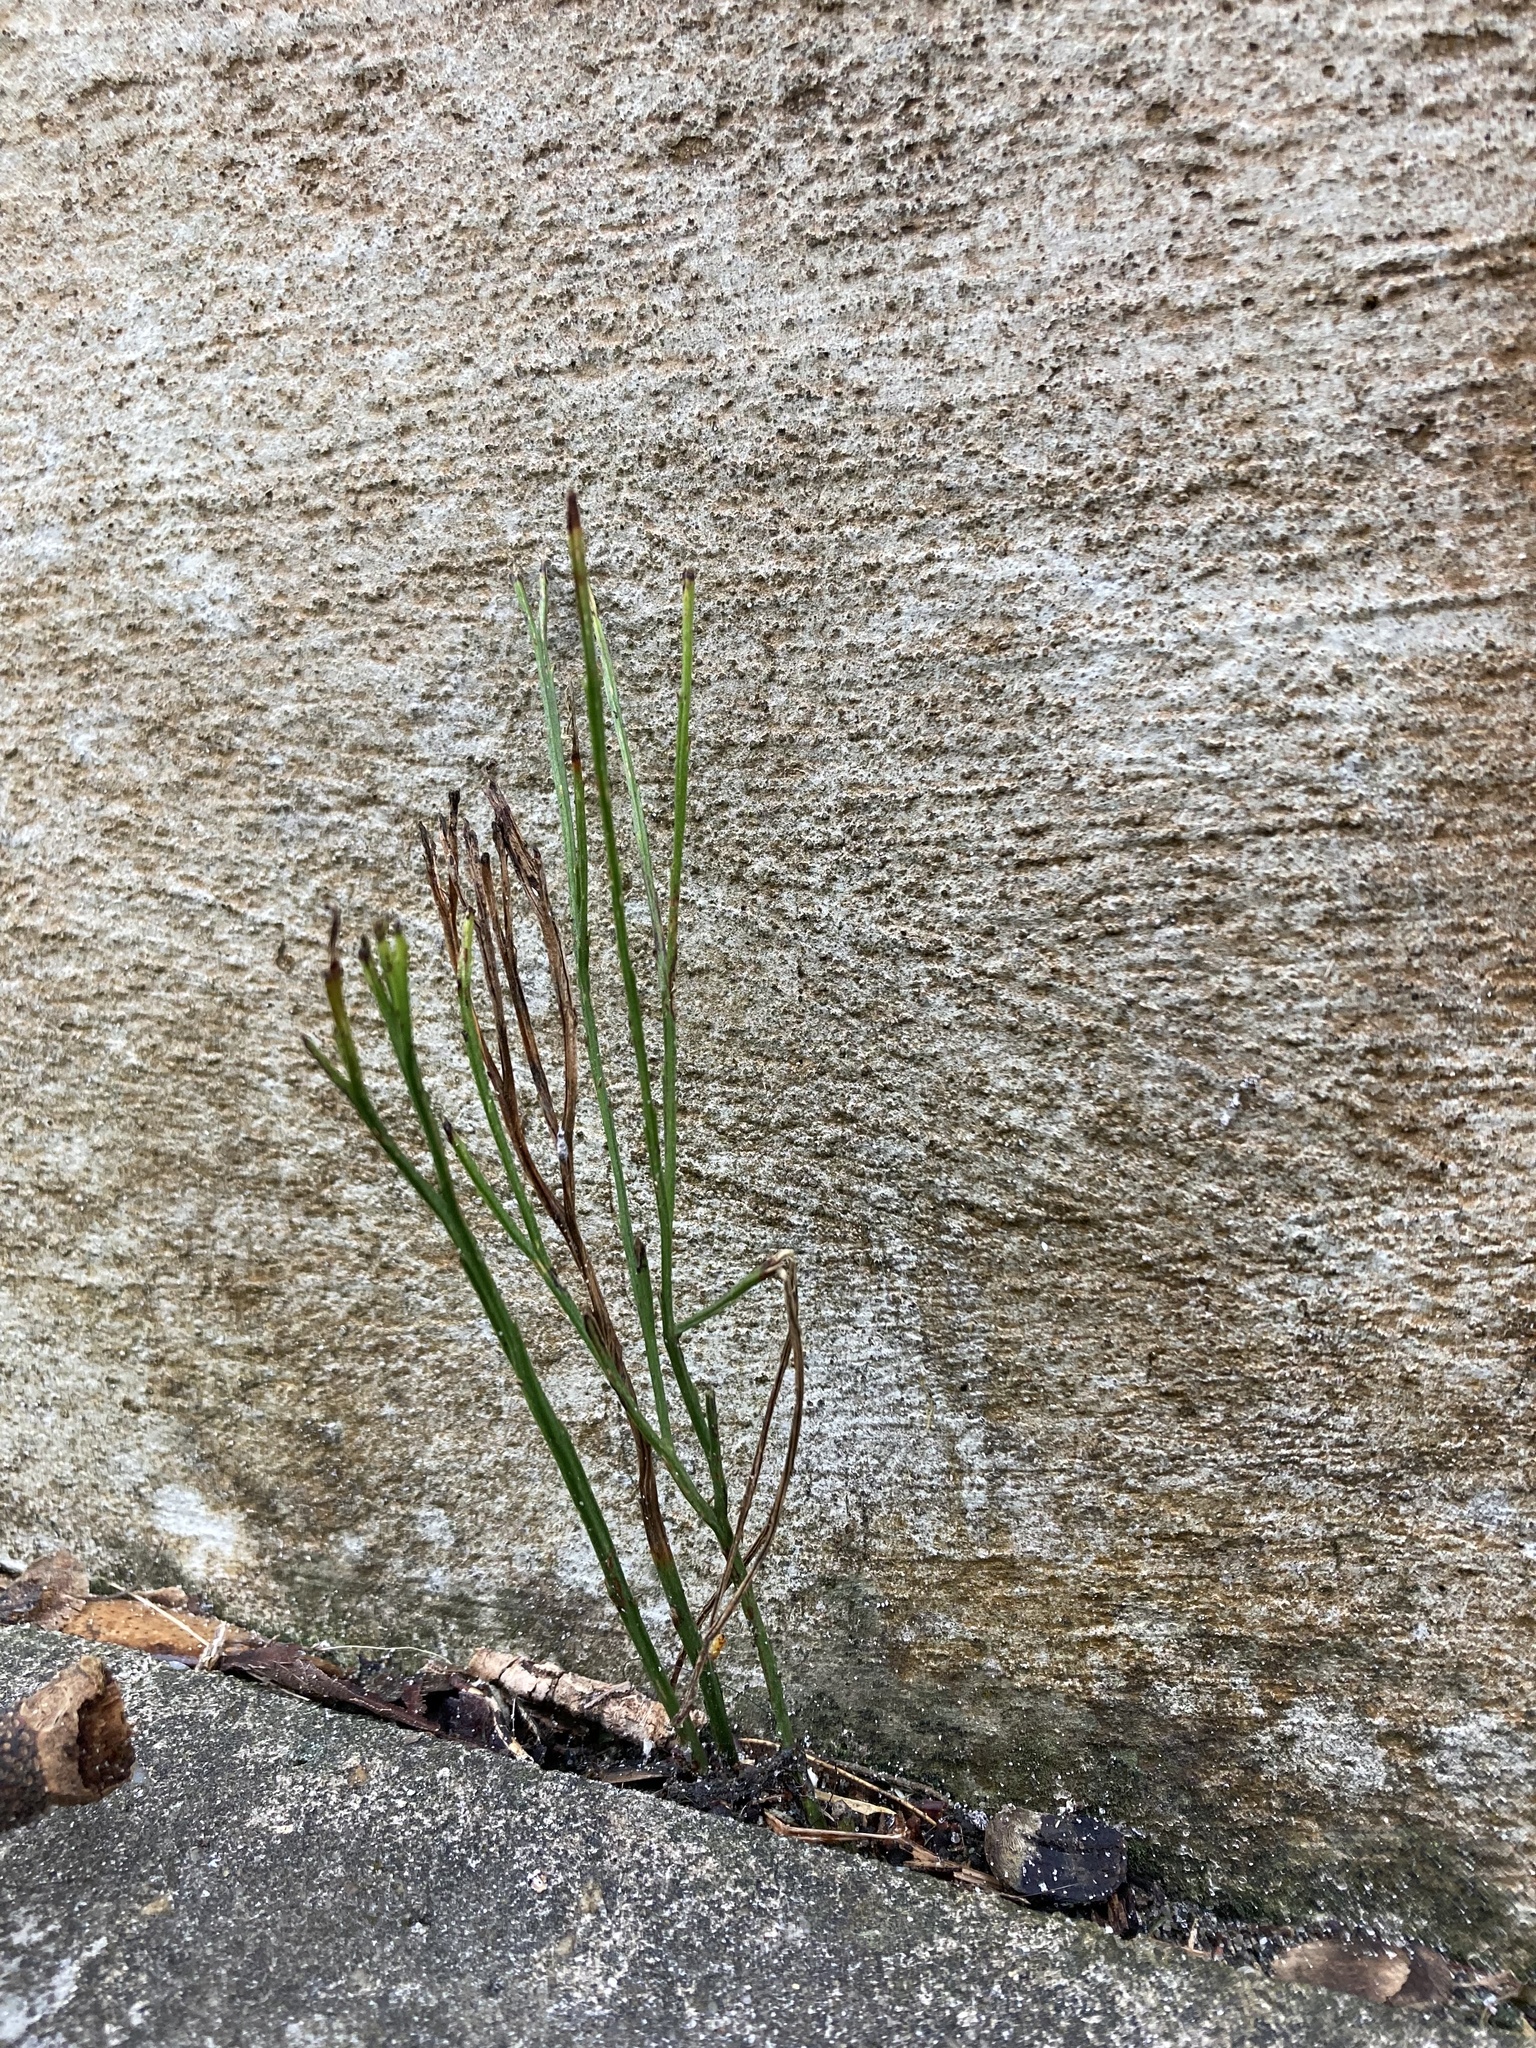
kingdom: Plantae
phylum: Tracheophyta
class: Polypodiopsida
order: Psilotales
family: Psilotaceae
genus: Psilotum
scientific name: Psilotum nudum
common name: Skeleton fork fern
